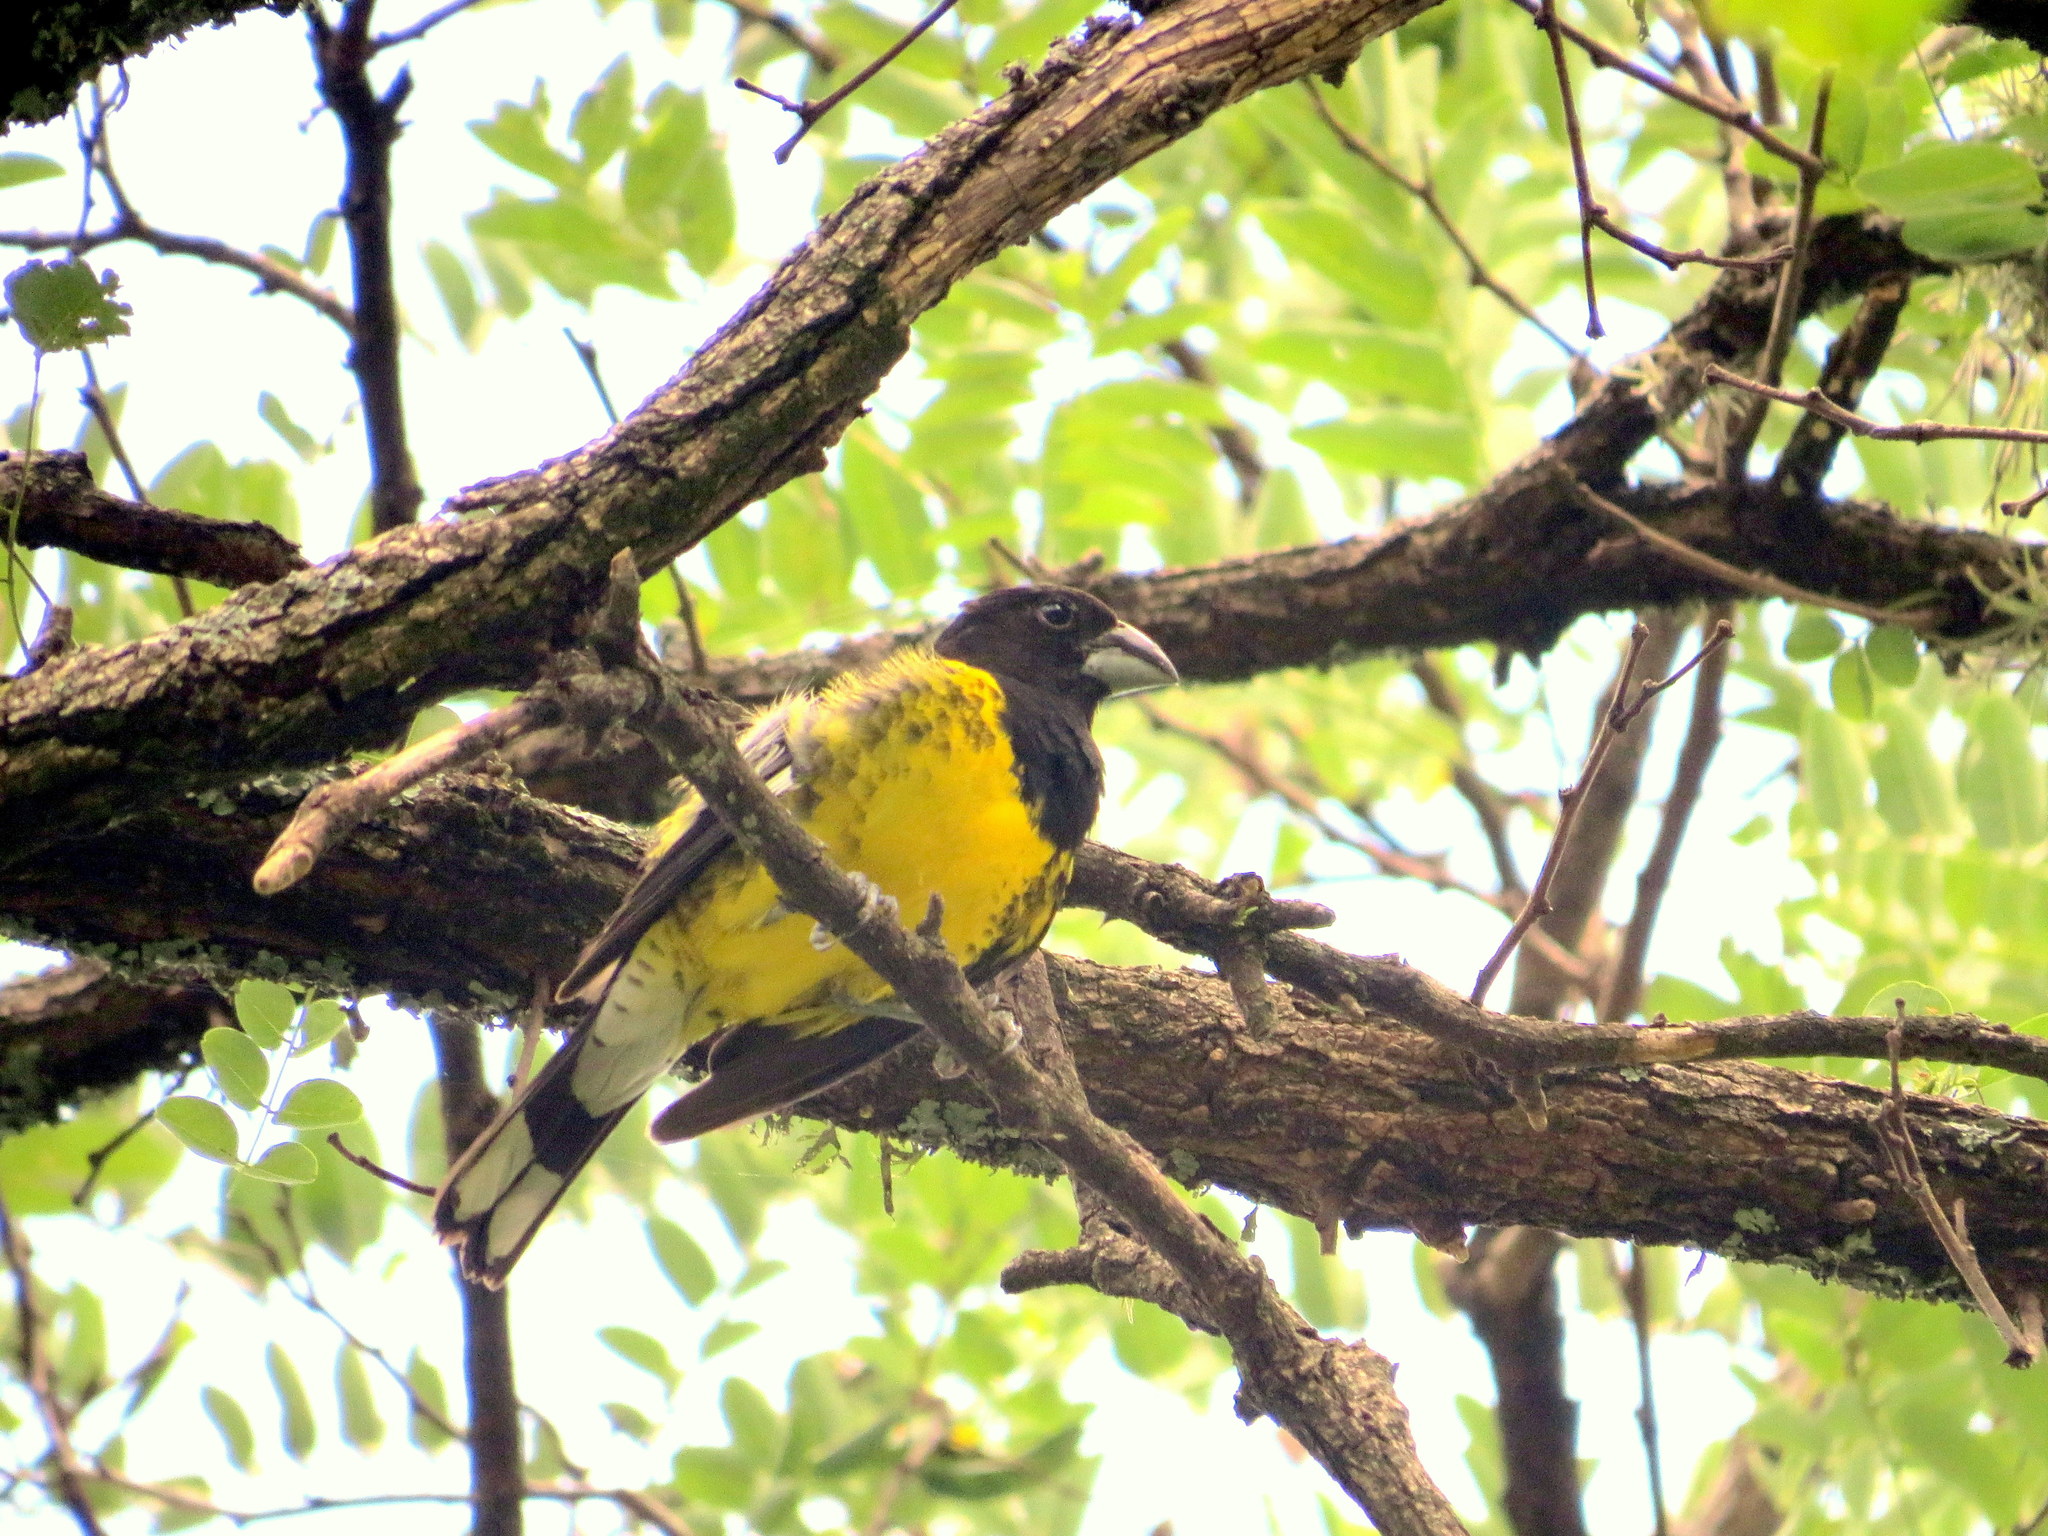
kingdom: Animalia
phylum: Chordata
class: Aves
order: Passeriformes
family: Cardinalidae
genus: Pheucticus
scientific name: Pheucticus aureoventris
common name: Black-backed grosbeak
